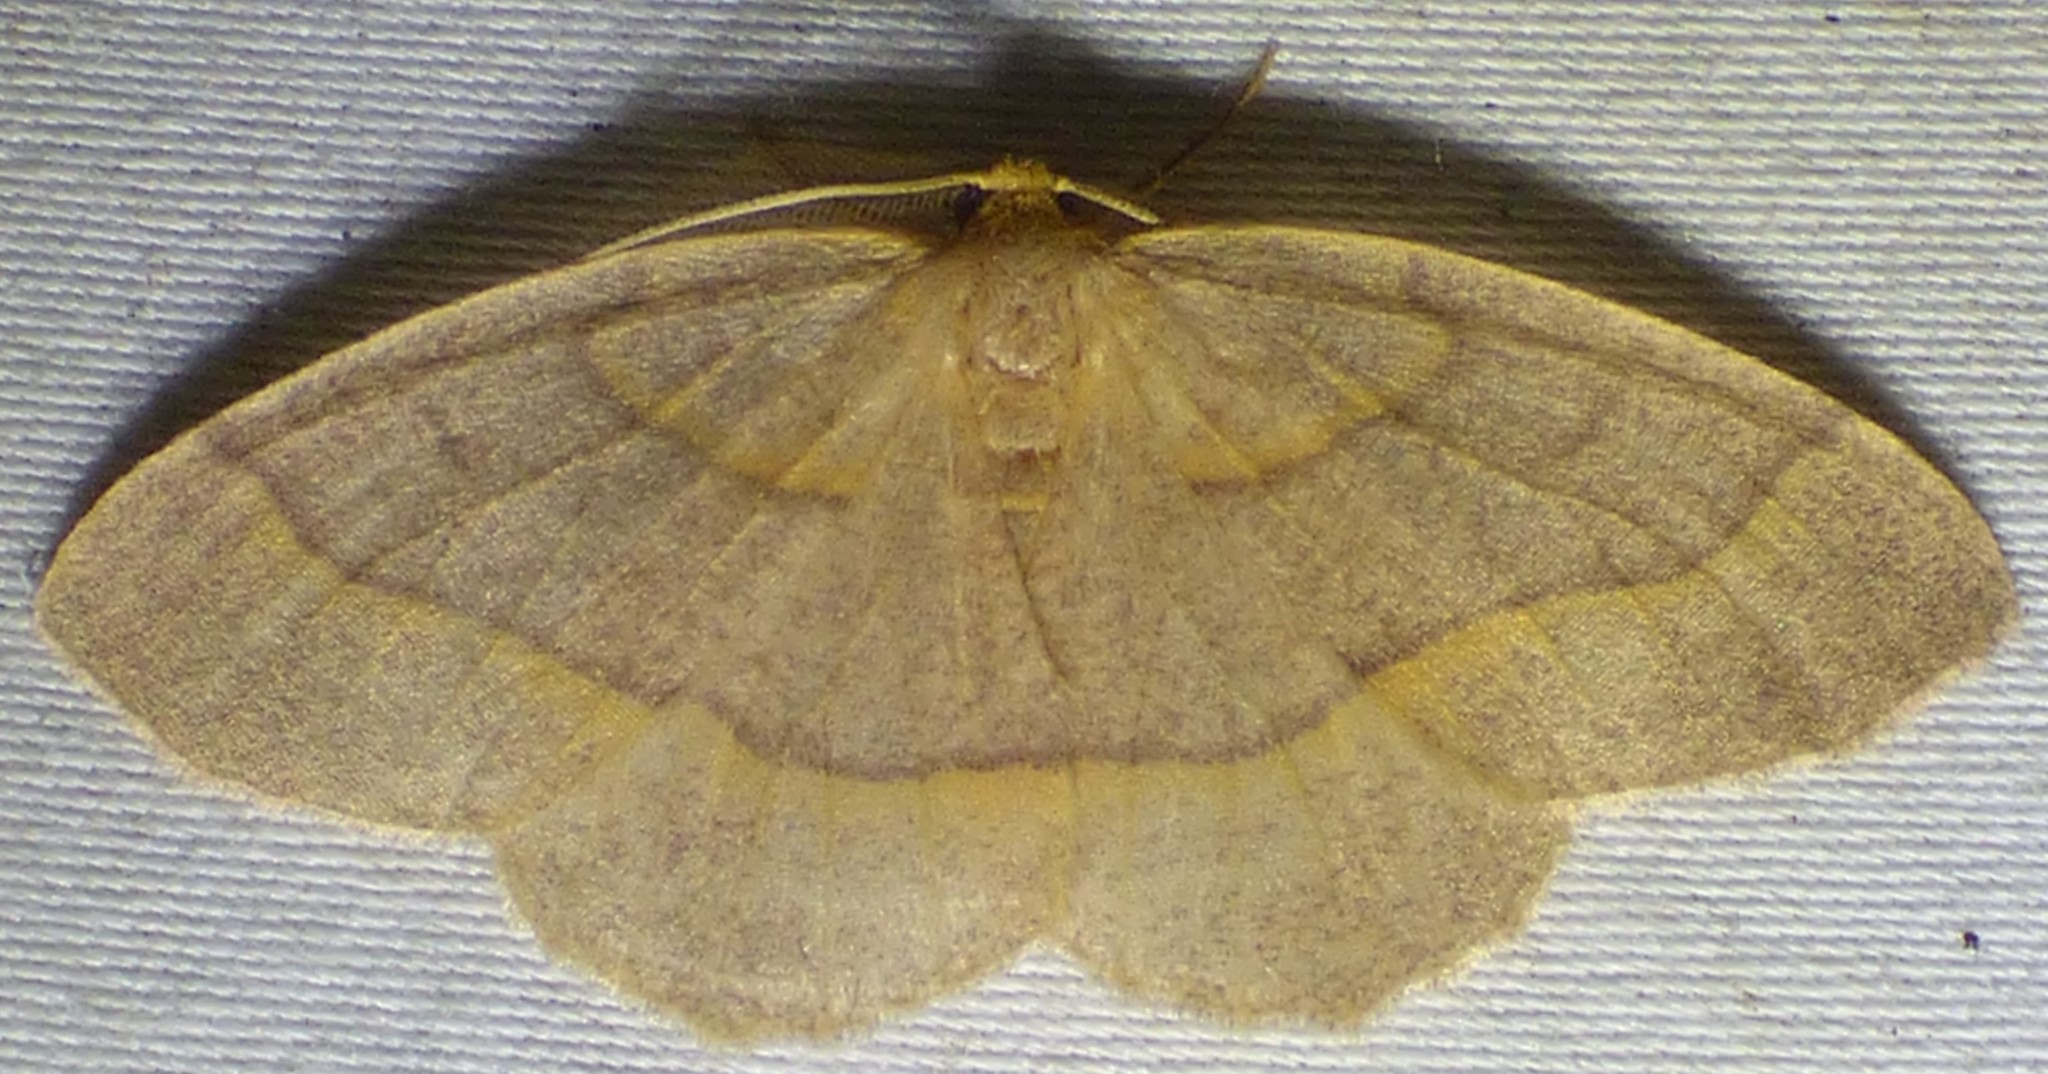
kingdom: Animalia
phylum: Arthropoda
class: Insecta
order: Lepidoptera
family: Geometridae
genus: Lambdina
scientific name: Lambdina fervidaria
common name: Curve-lined looper moth
